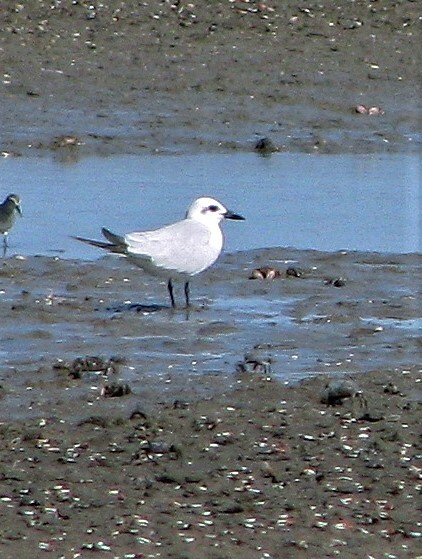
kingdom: Animalia
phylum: Chordata
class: Aves
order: Charadriiformes
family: Laridae
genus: Gelochelidon
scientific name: Gelochelidon nilotica
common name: Gull-billed tern
